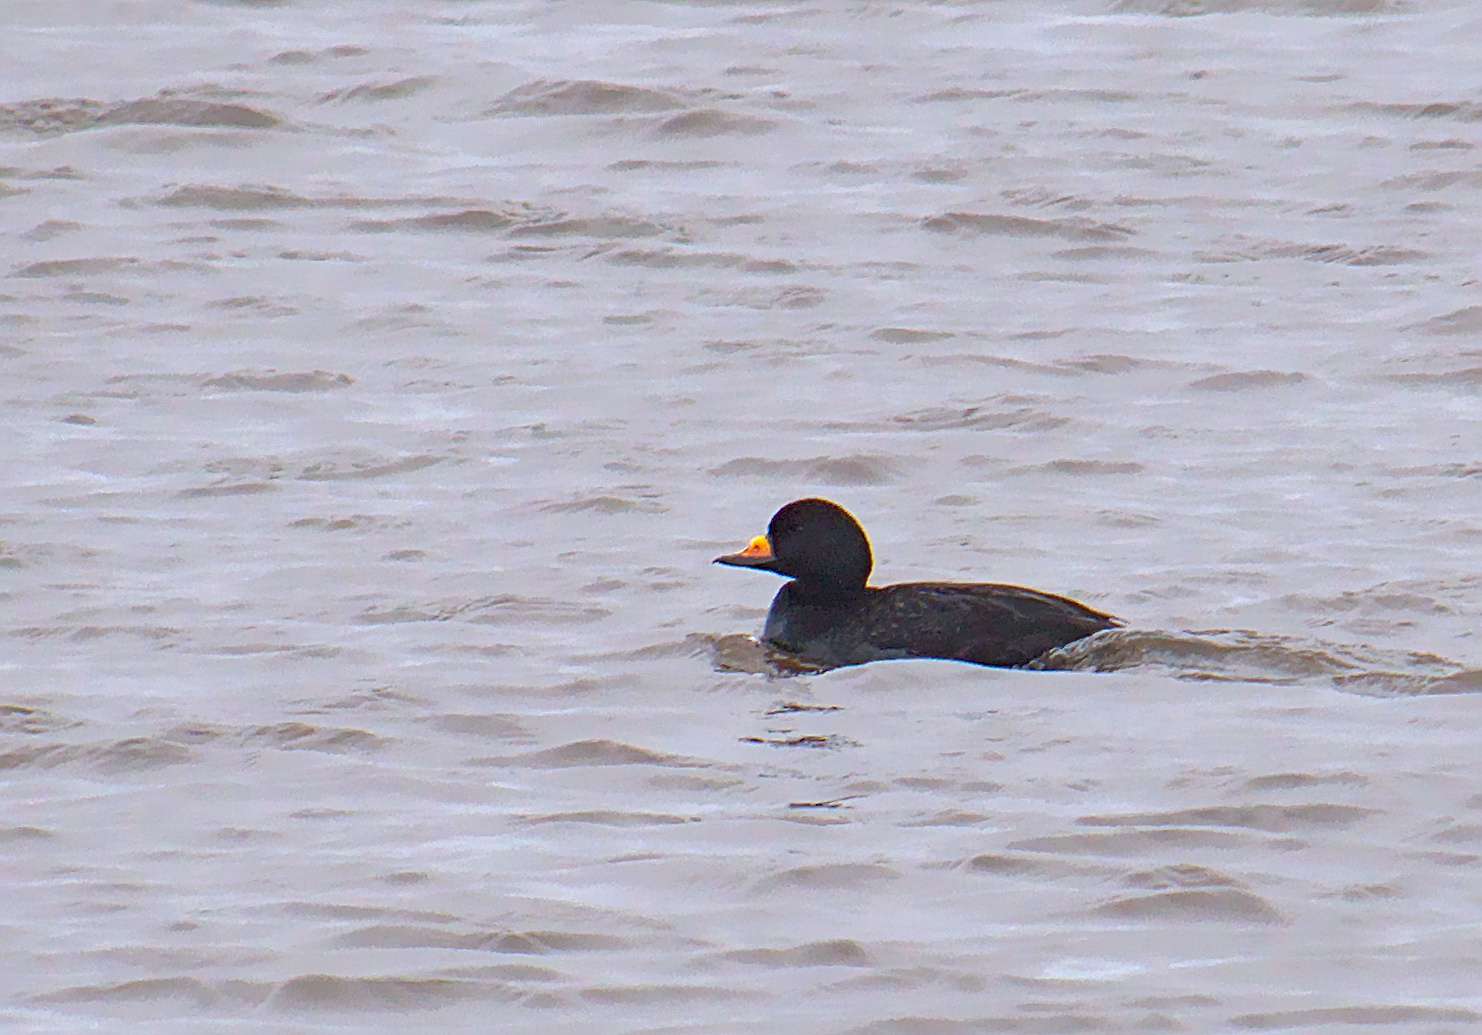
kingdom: Animalia
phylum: Chordata
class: Aves
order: Anseriformes
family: Anatidae
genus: Melanitta
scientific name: Melanitta americana
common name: Black scoter
